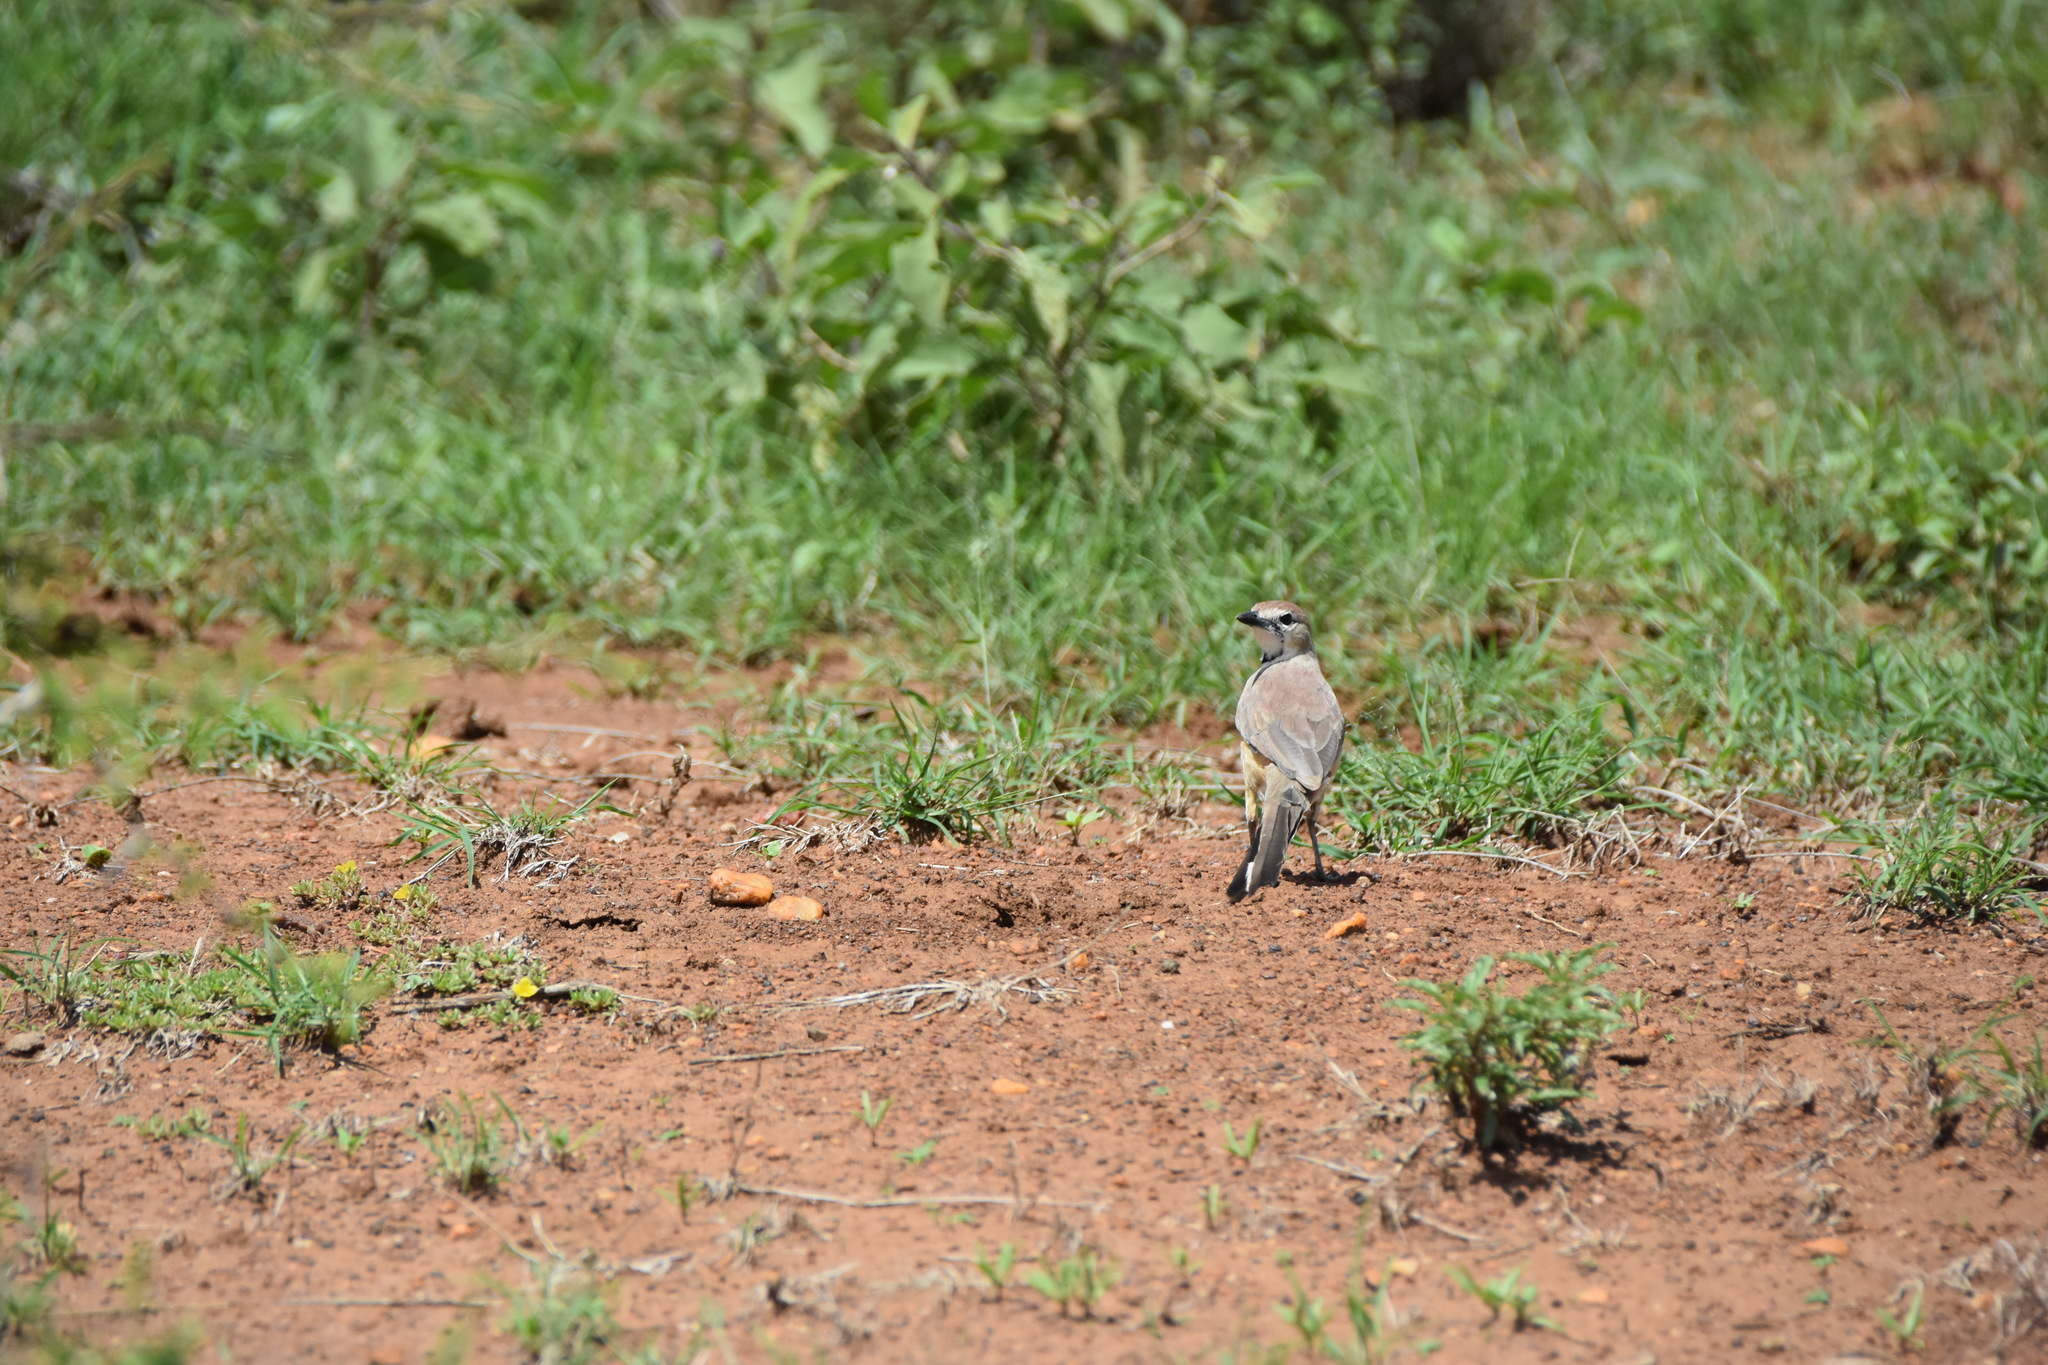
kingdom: Animalia
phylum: Chordata
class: Aves
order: Passeriformes
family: Malaconotidae
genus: Telophorus
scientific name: Telophorus cruentus
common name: Rosy-patched bushshrike
